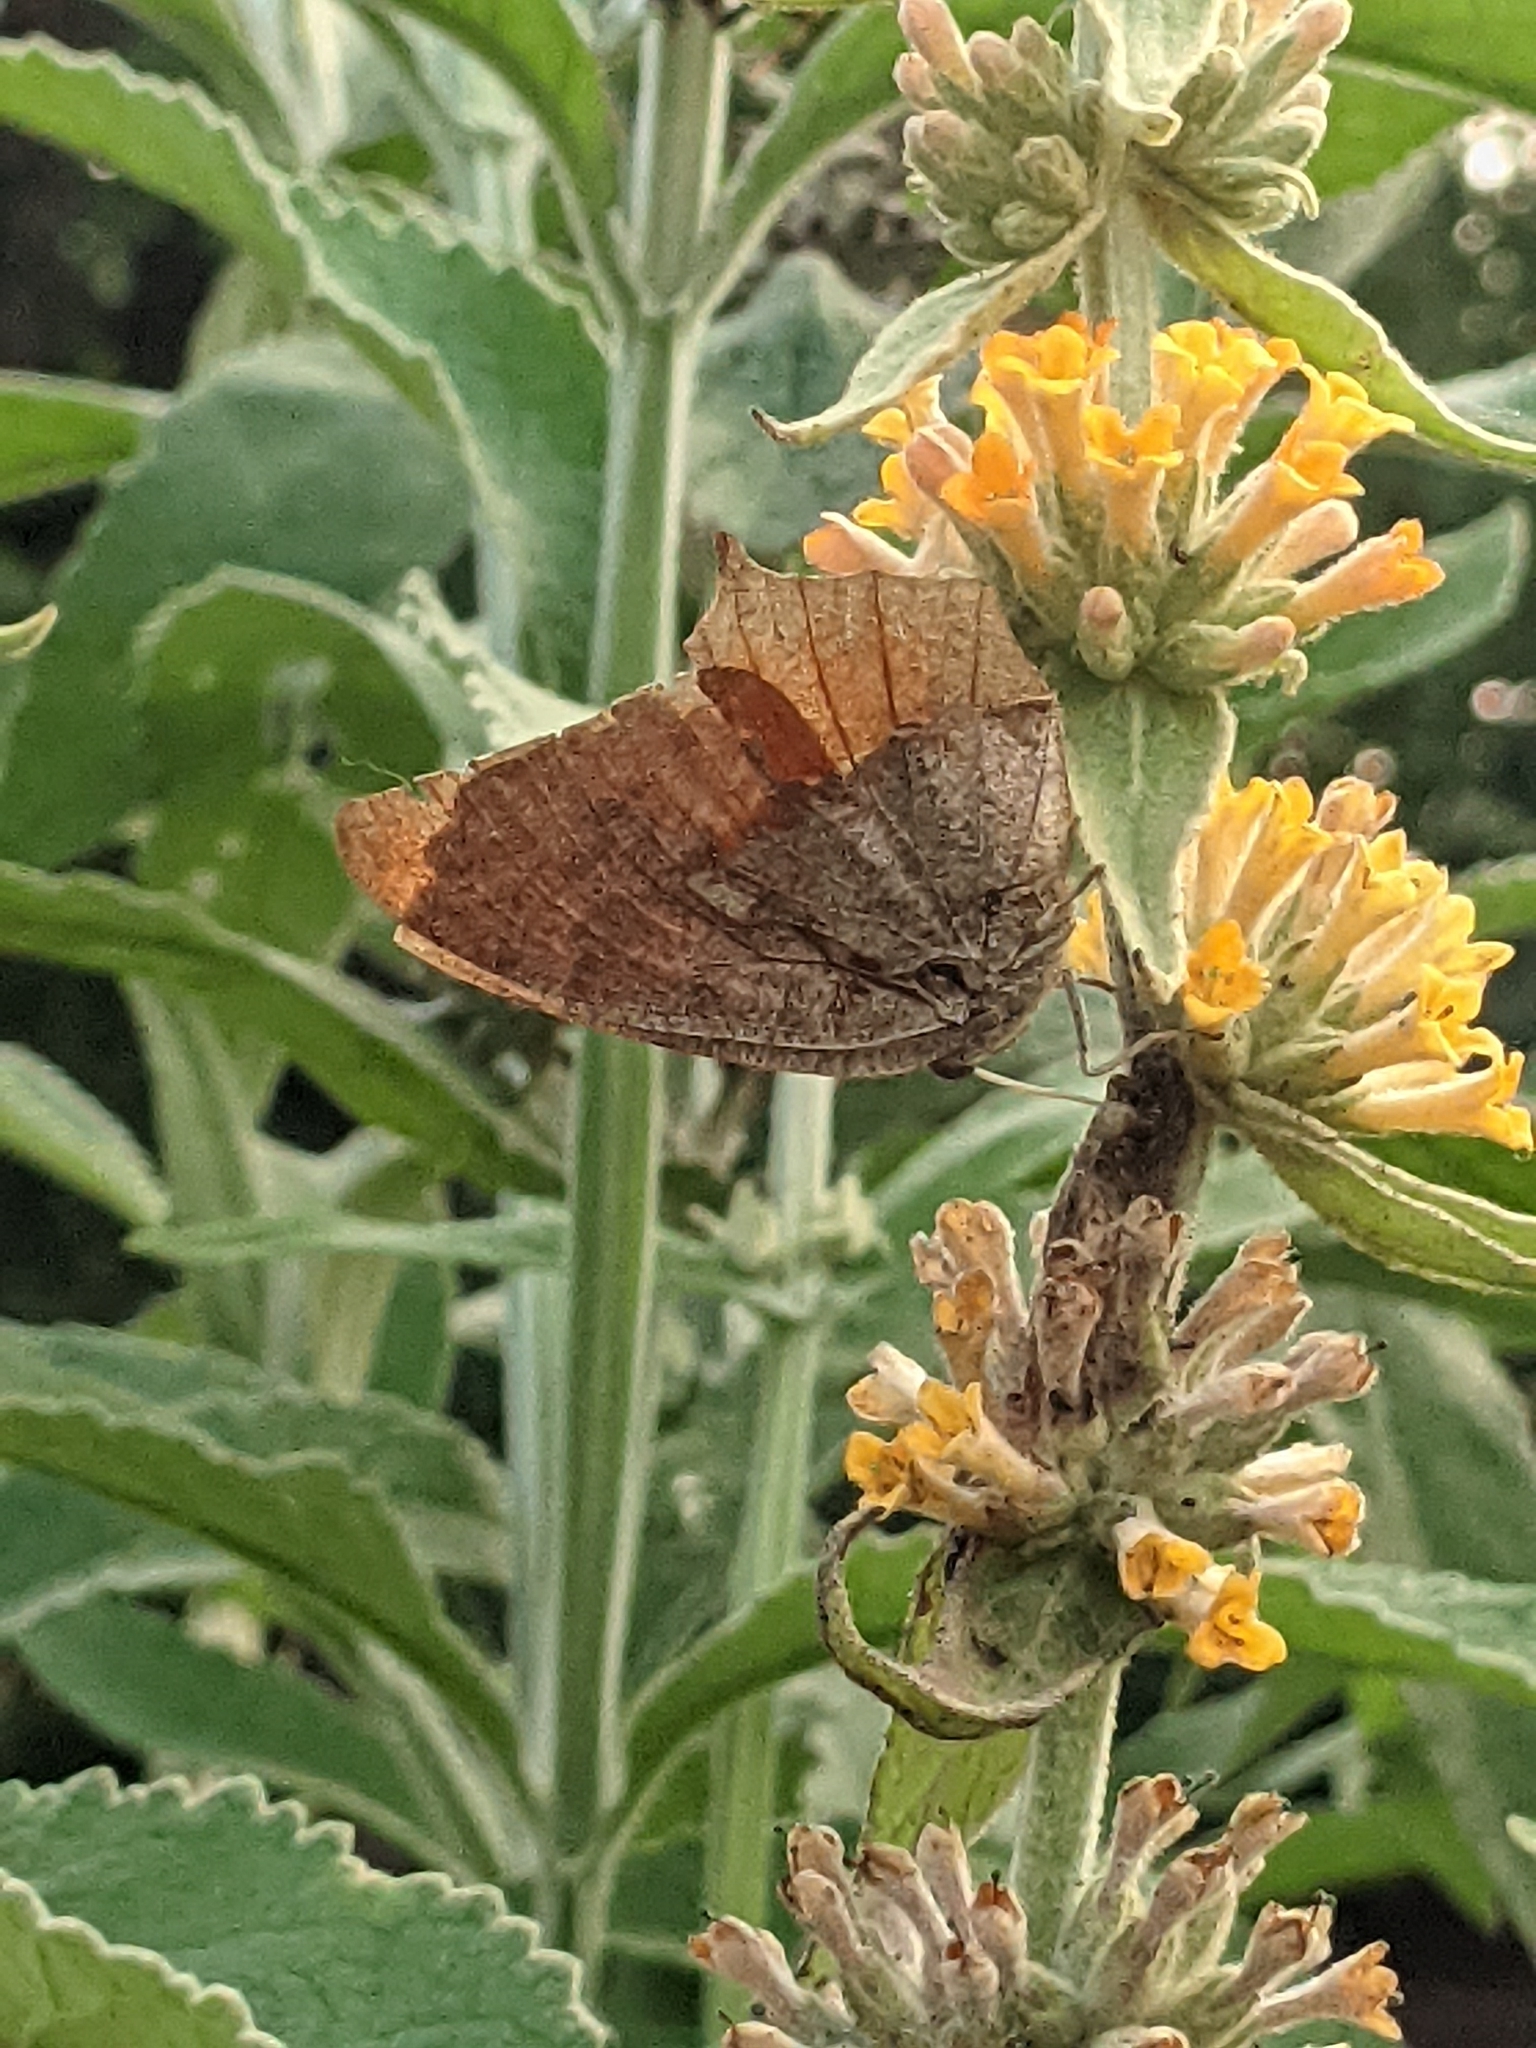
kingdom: Animalia
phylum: Arthropoda
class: Insecta
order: Lepidoptera
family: Nymphalidae
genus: Anaea
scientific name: Anaea andria
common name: Goatweed leafwing
